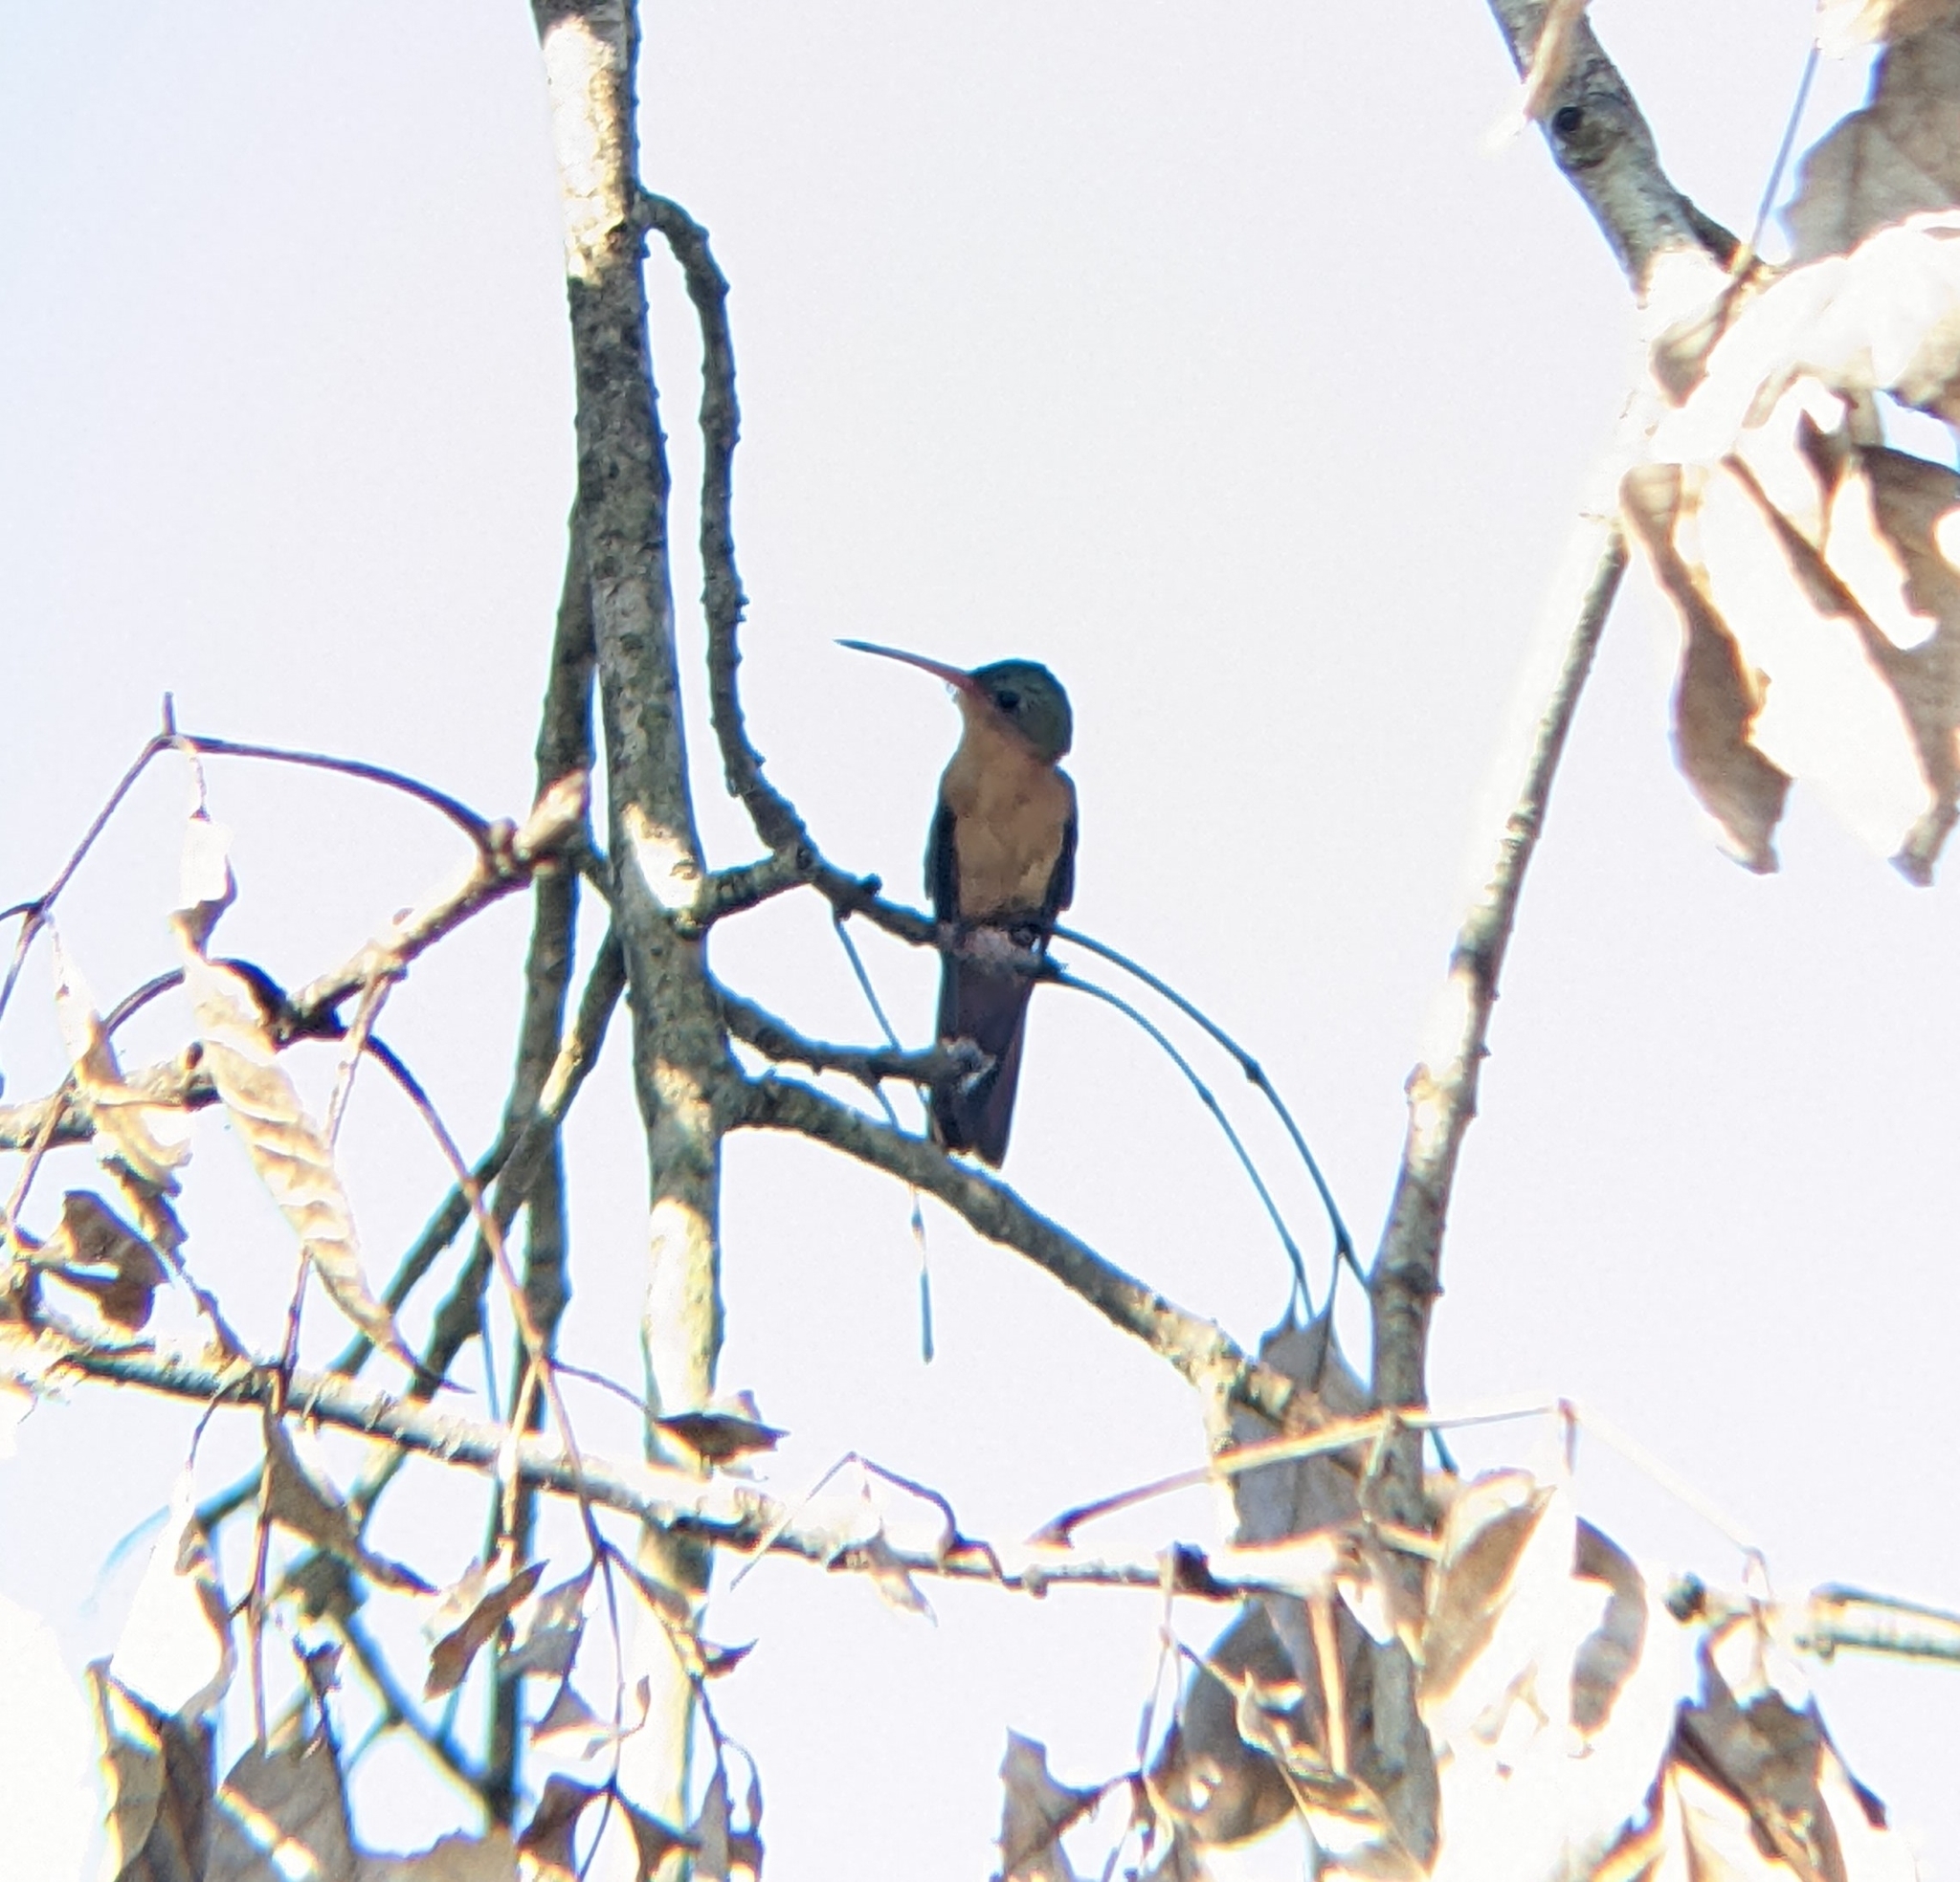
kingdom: Animalia
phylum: Chordata
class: Aves
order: Apodiformes
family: Trochilidae
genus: Amazilia
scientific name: Amazilia rutila
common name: Cinnamon hummingbird
